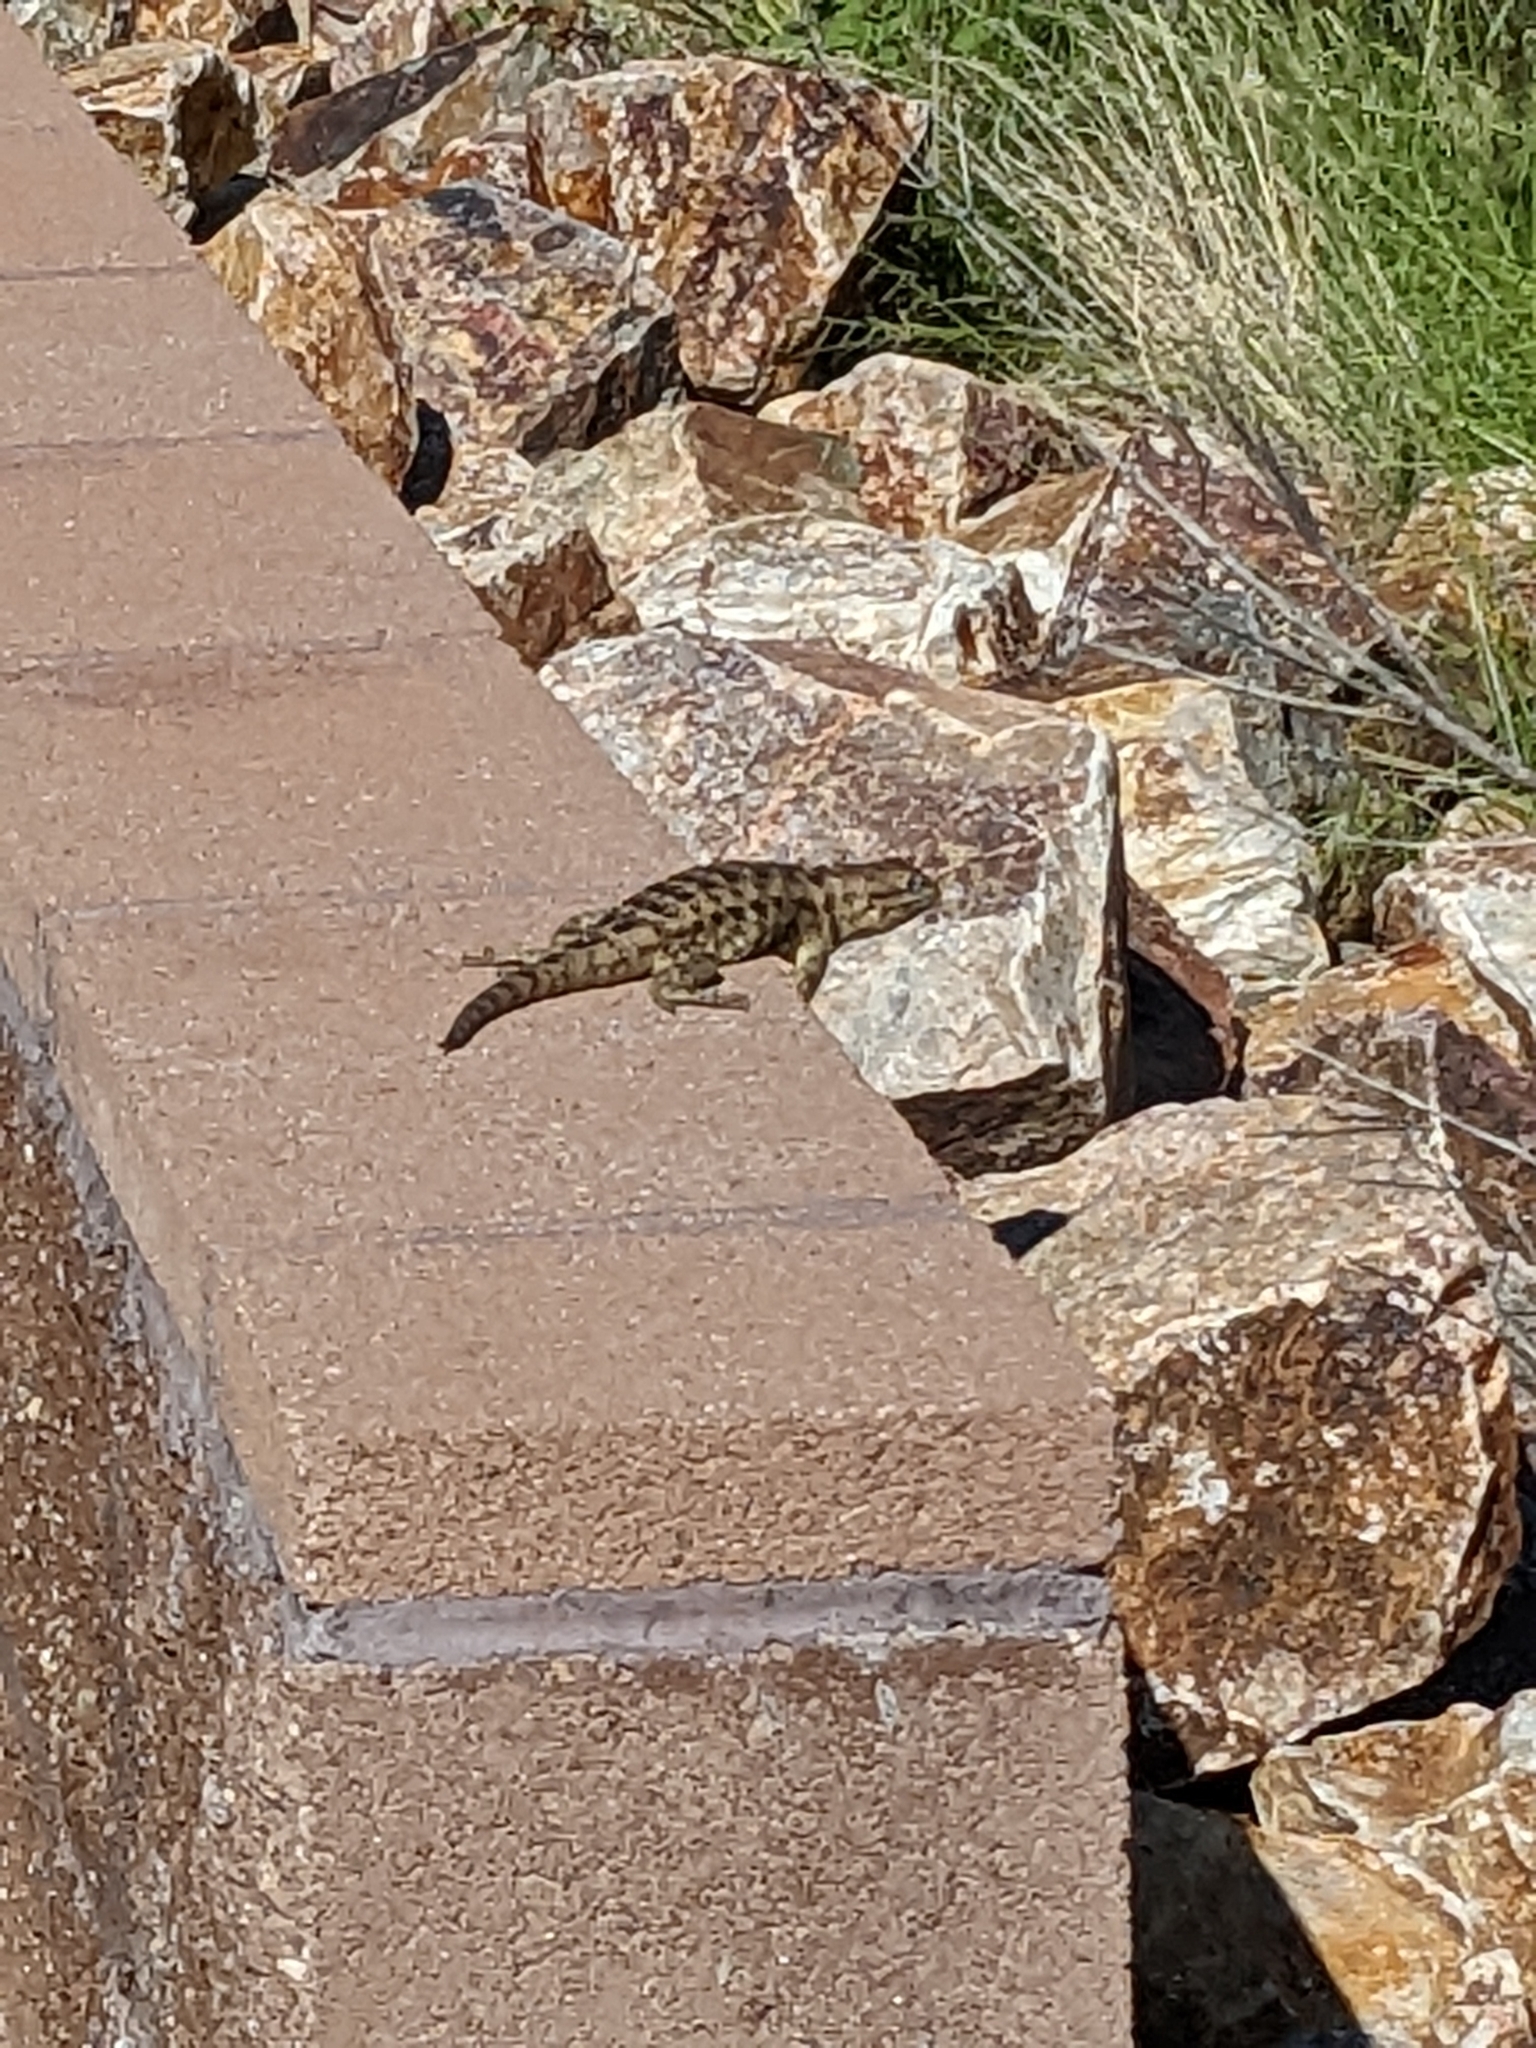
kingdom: Animalia
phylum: Chordata
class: Squamata
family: Phrynosomatidae
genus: Sceloporus
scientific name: Sceloporus magister
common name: Desert spiny lizard
